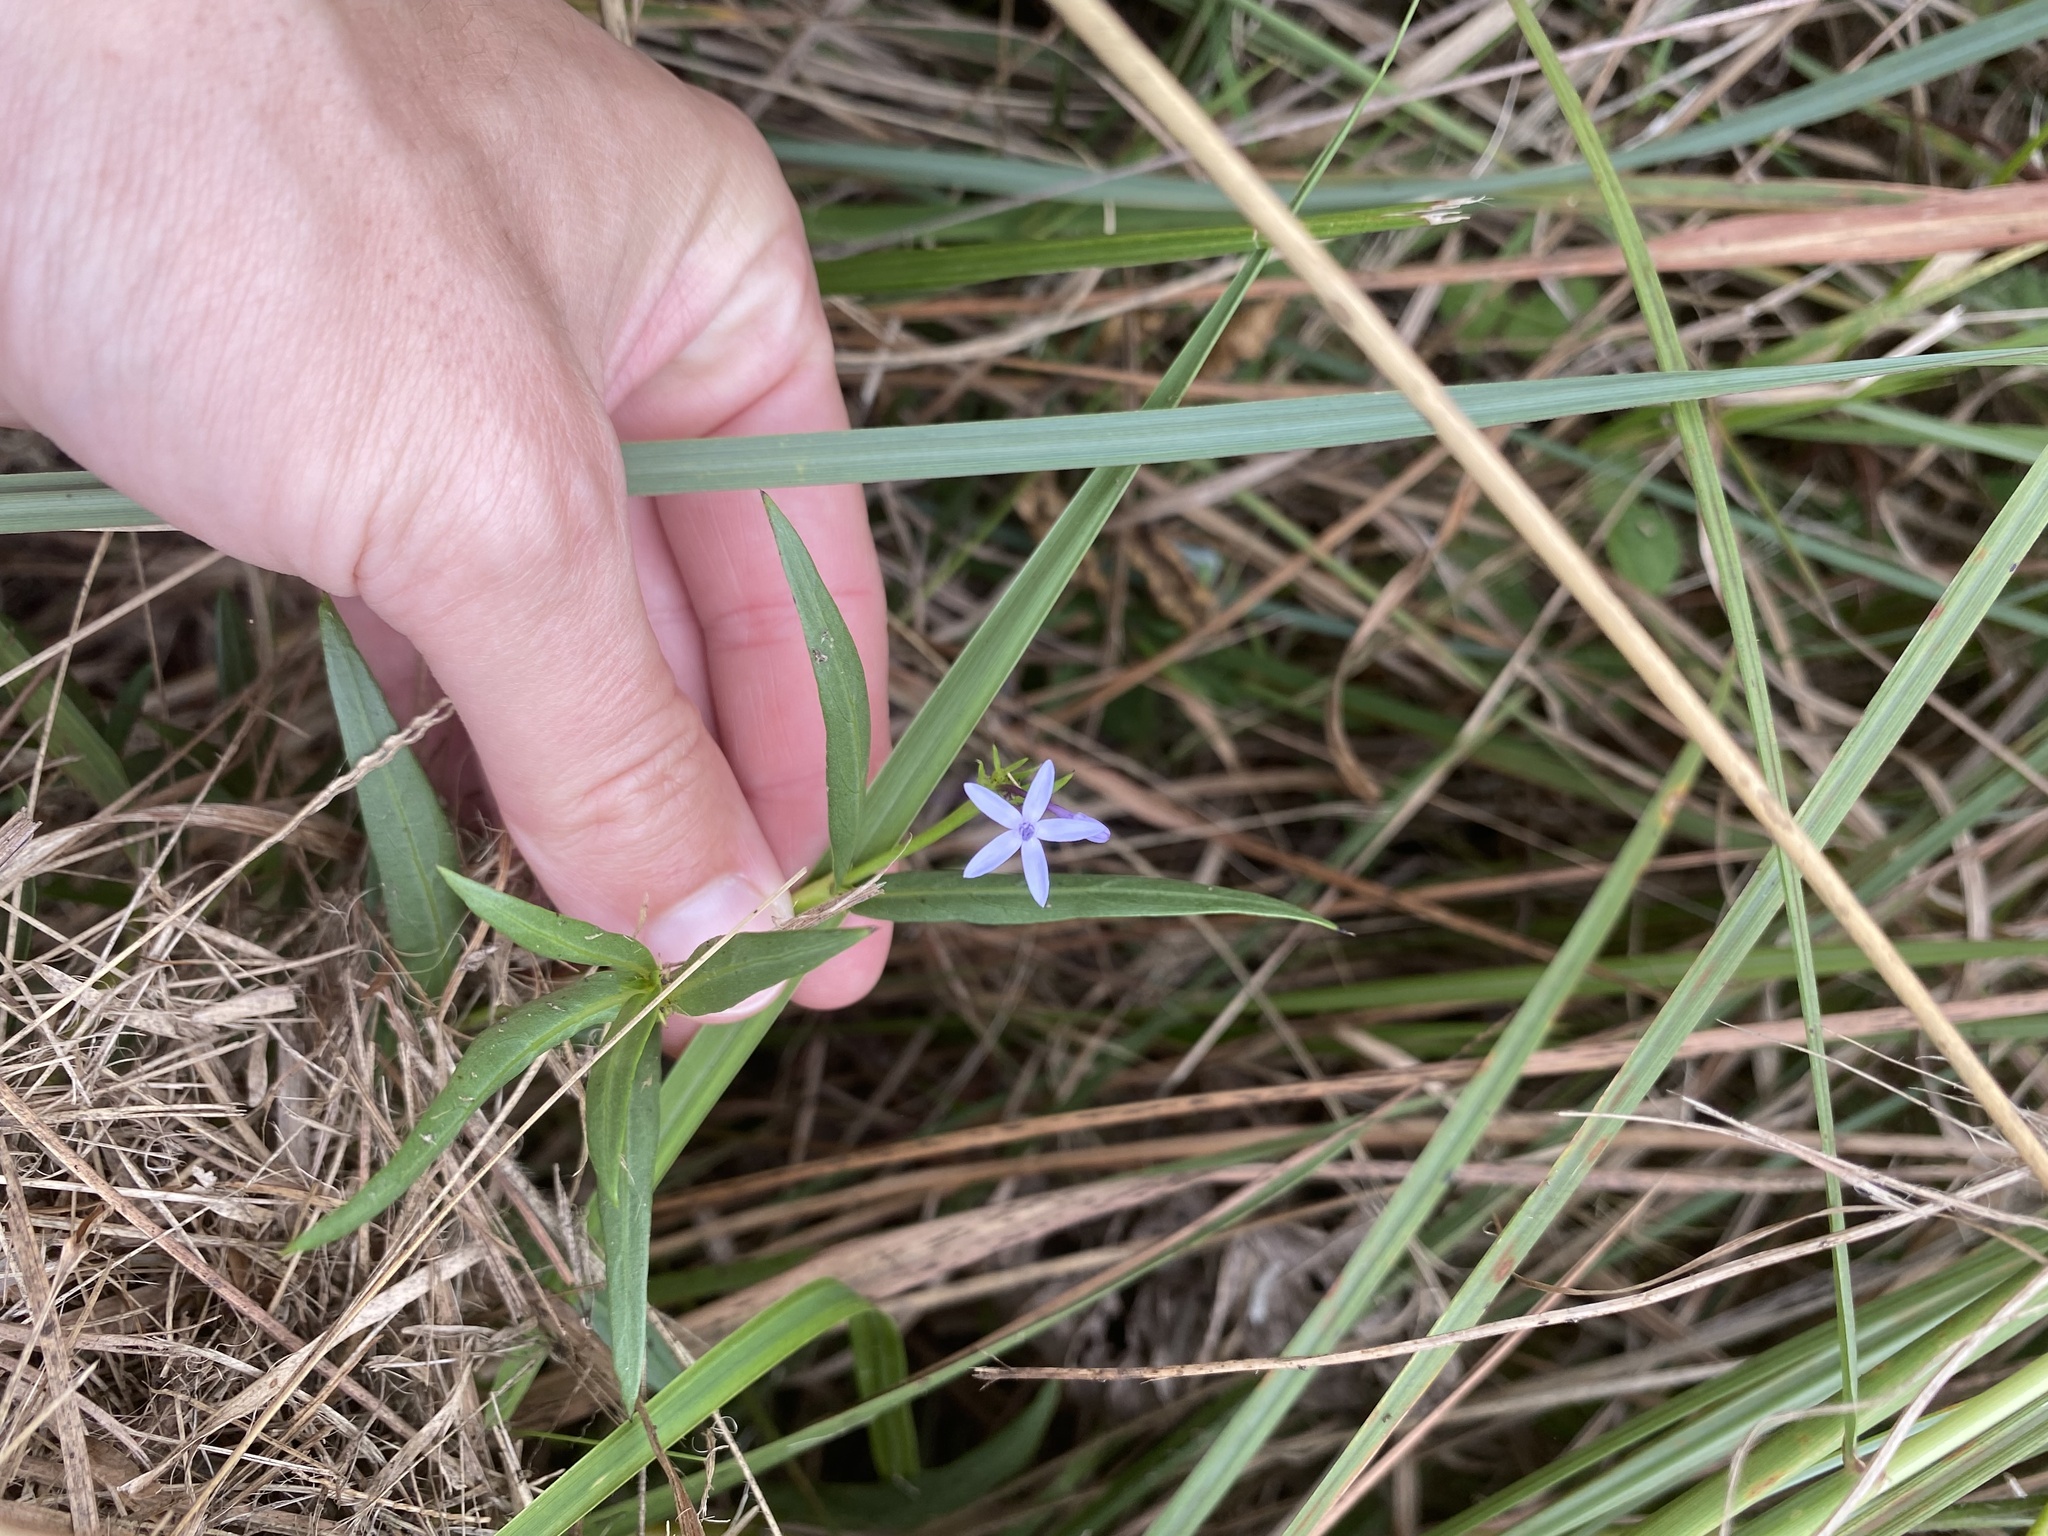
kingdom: Plantae
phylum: Tracheophyta
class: Magnoliopsida
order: Gentianales
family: Rubiaceae
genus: Pentanisia
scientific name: Pentanisia angustifolia
